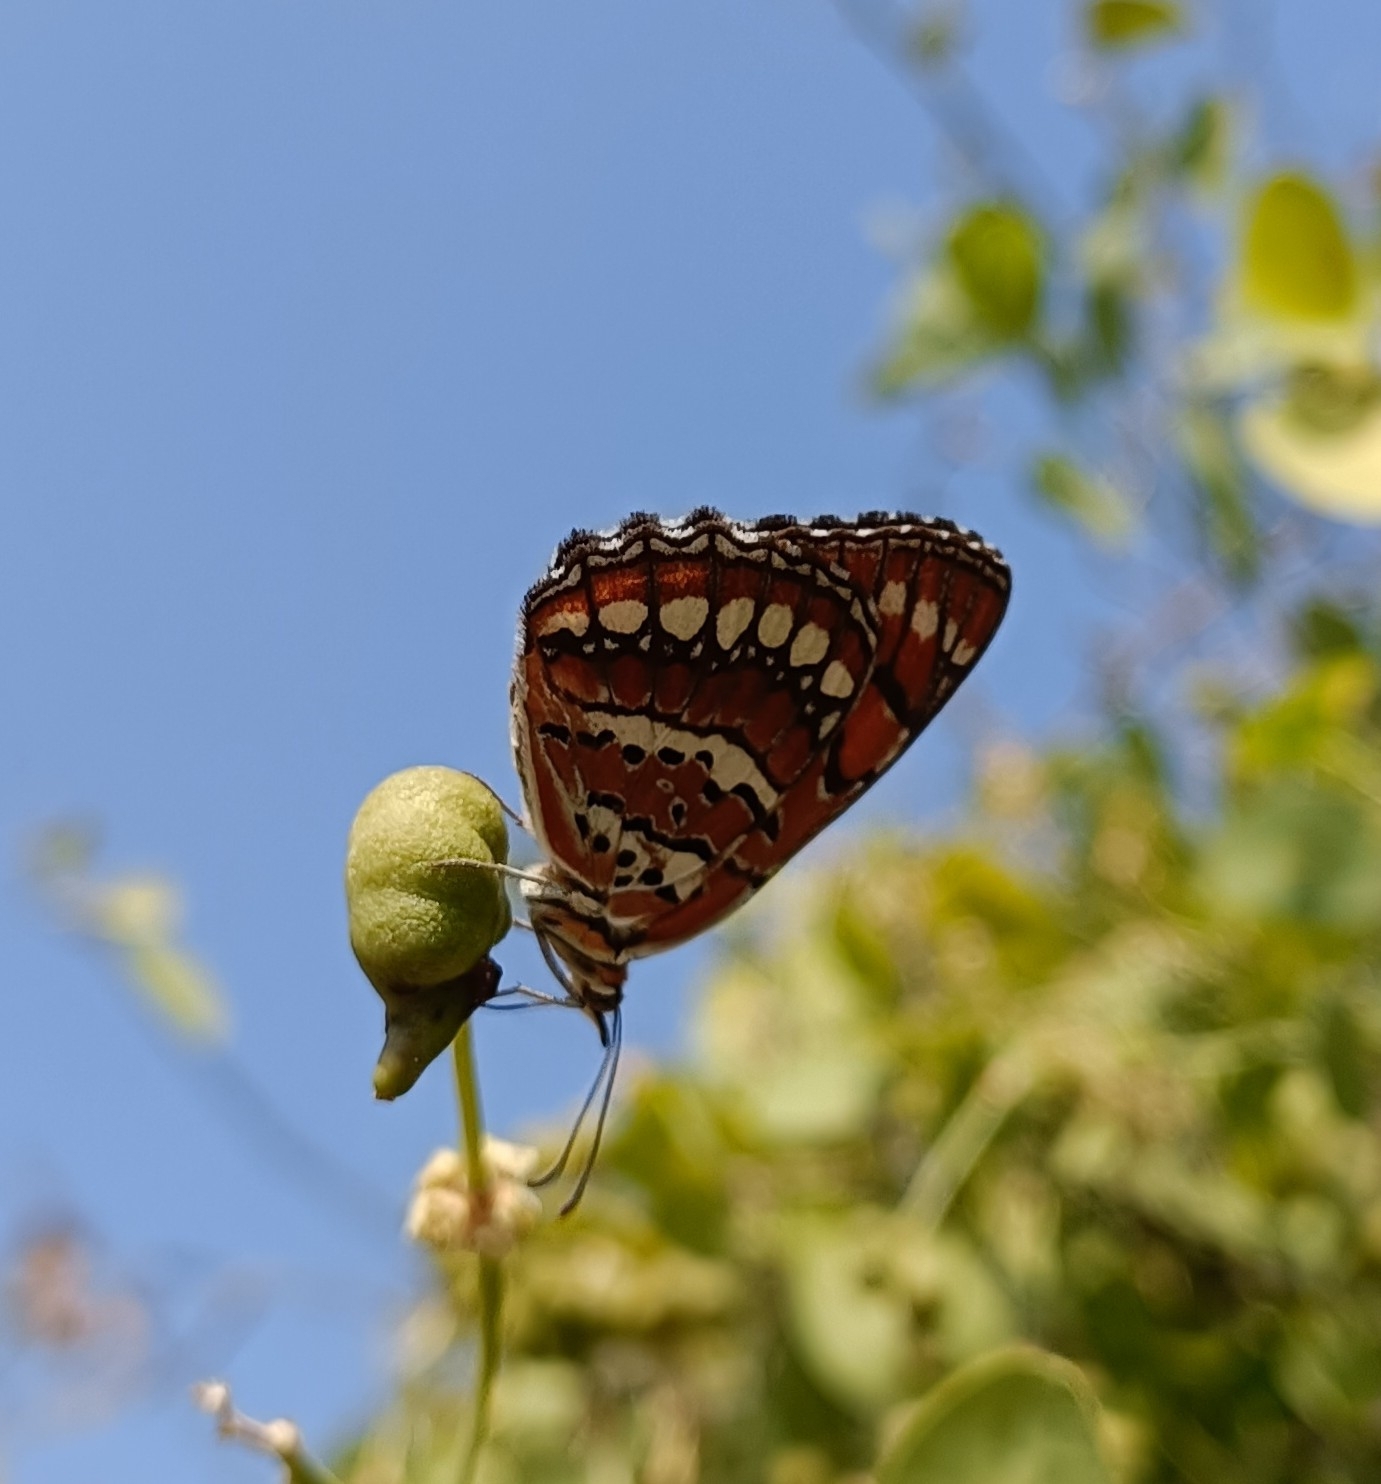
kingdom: Animalia
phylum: Arthropoda
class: Insecta
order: Lepidoptera
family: Nymphalidae
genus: Byblia
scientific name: Byblia ilithyia
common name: Spotted joker
